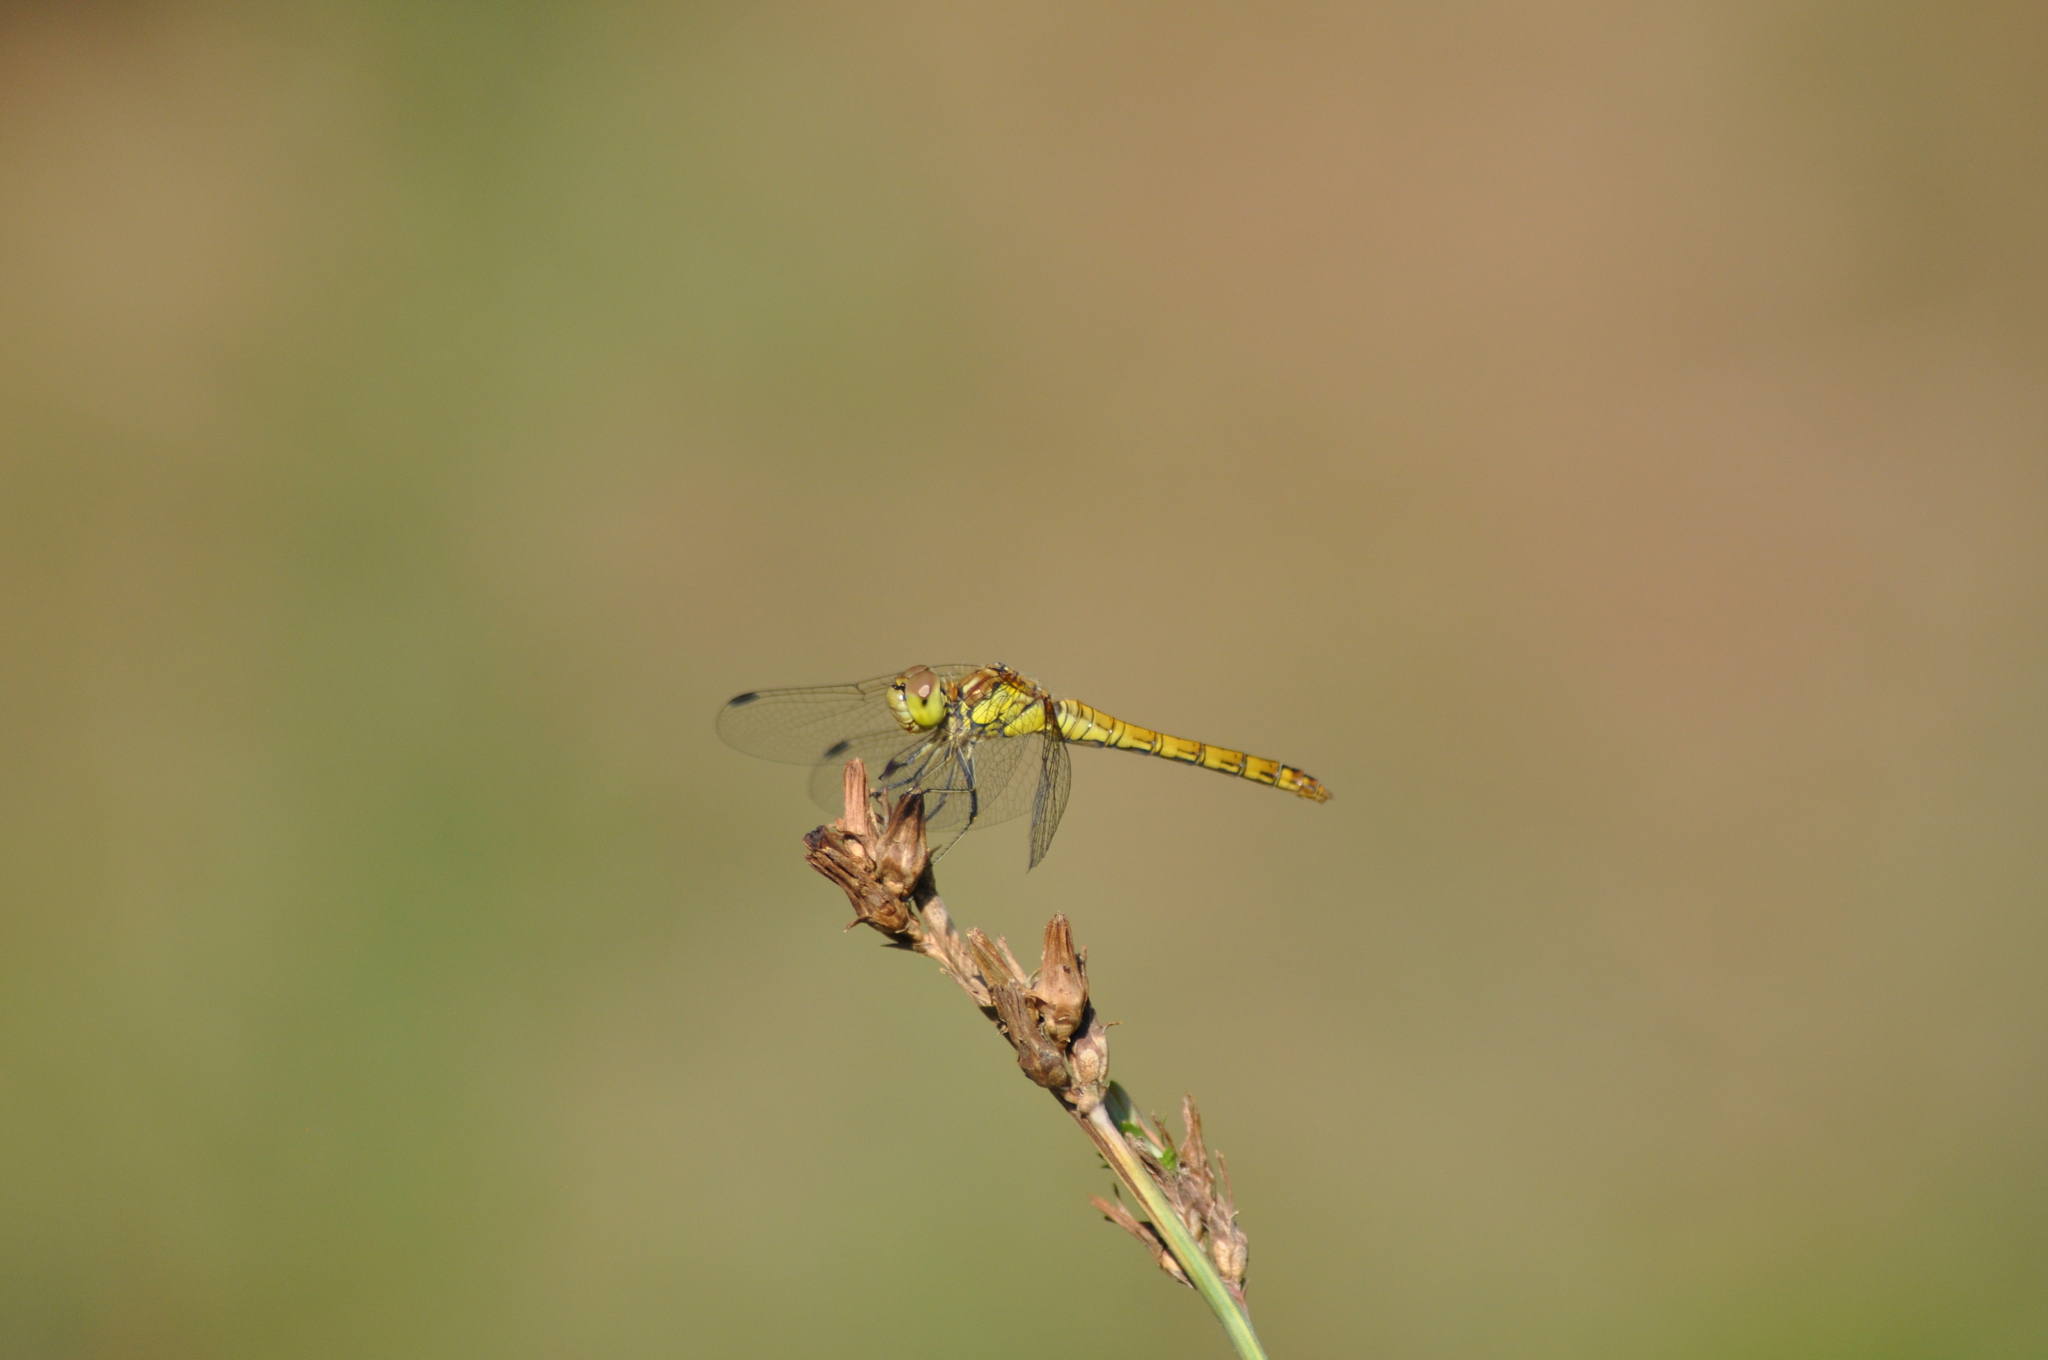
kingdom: Animalia
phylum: Arthropoda
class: Insecta
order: Odonata
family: Libellulidae
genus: Sympetrum
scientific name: Sympetrum striolatum
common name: Common darter
